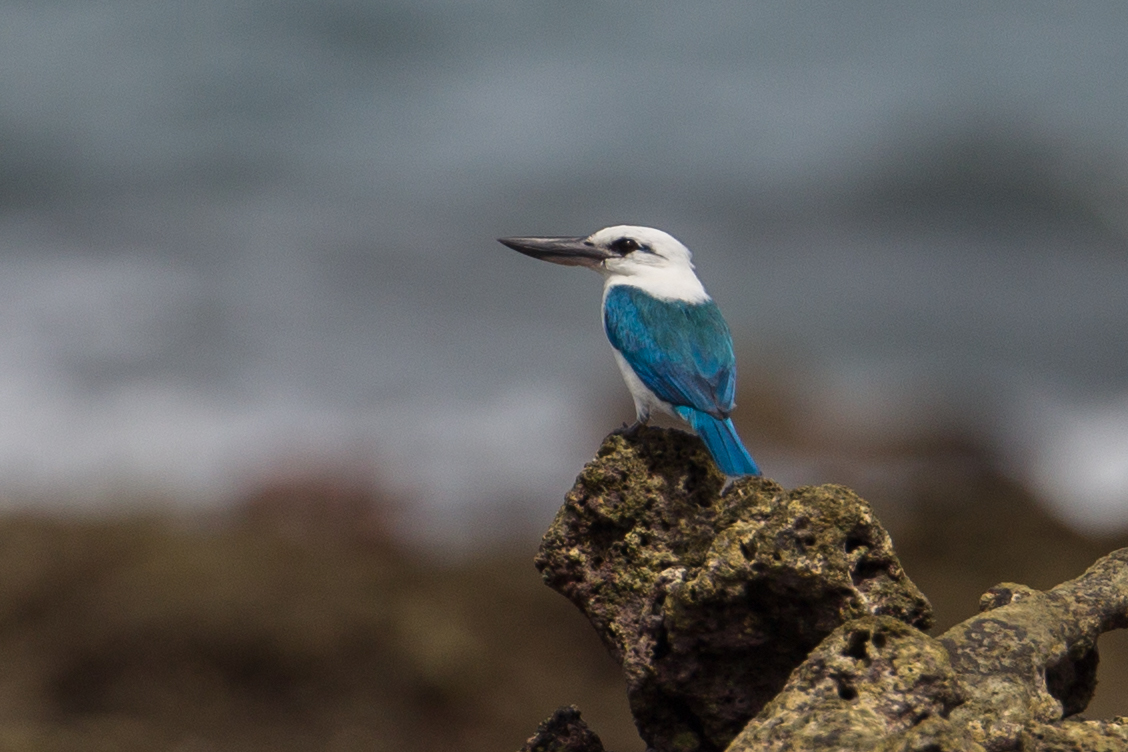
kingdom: Animalia
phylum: Chordata
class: Aves
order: Coraciiformes
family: Alcedinidae
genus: Todiramphus
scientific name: Todiramphus saurophagus
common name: Beach kingfisher
